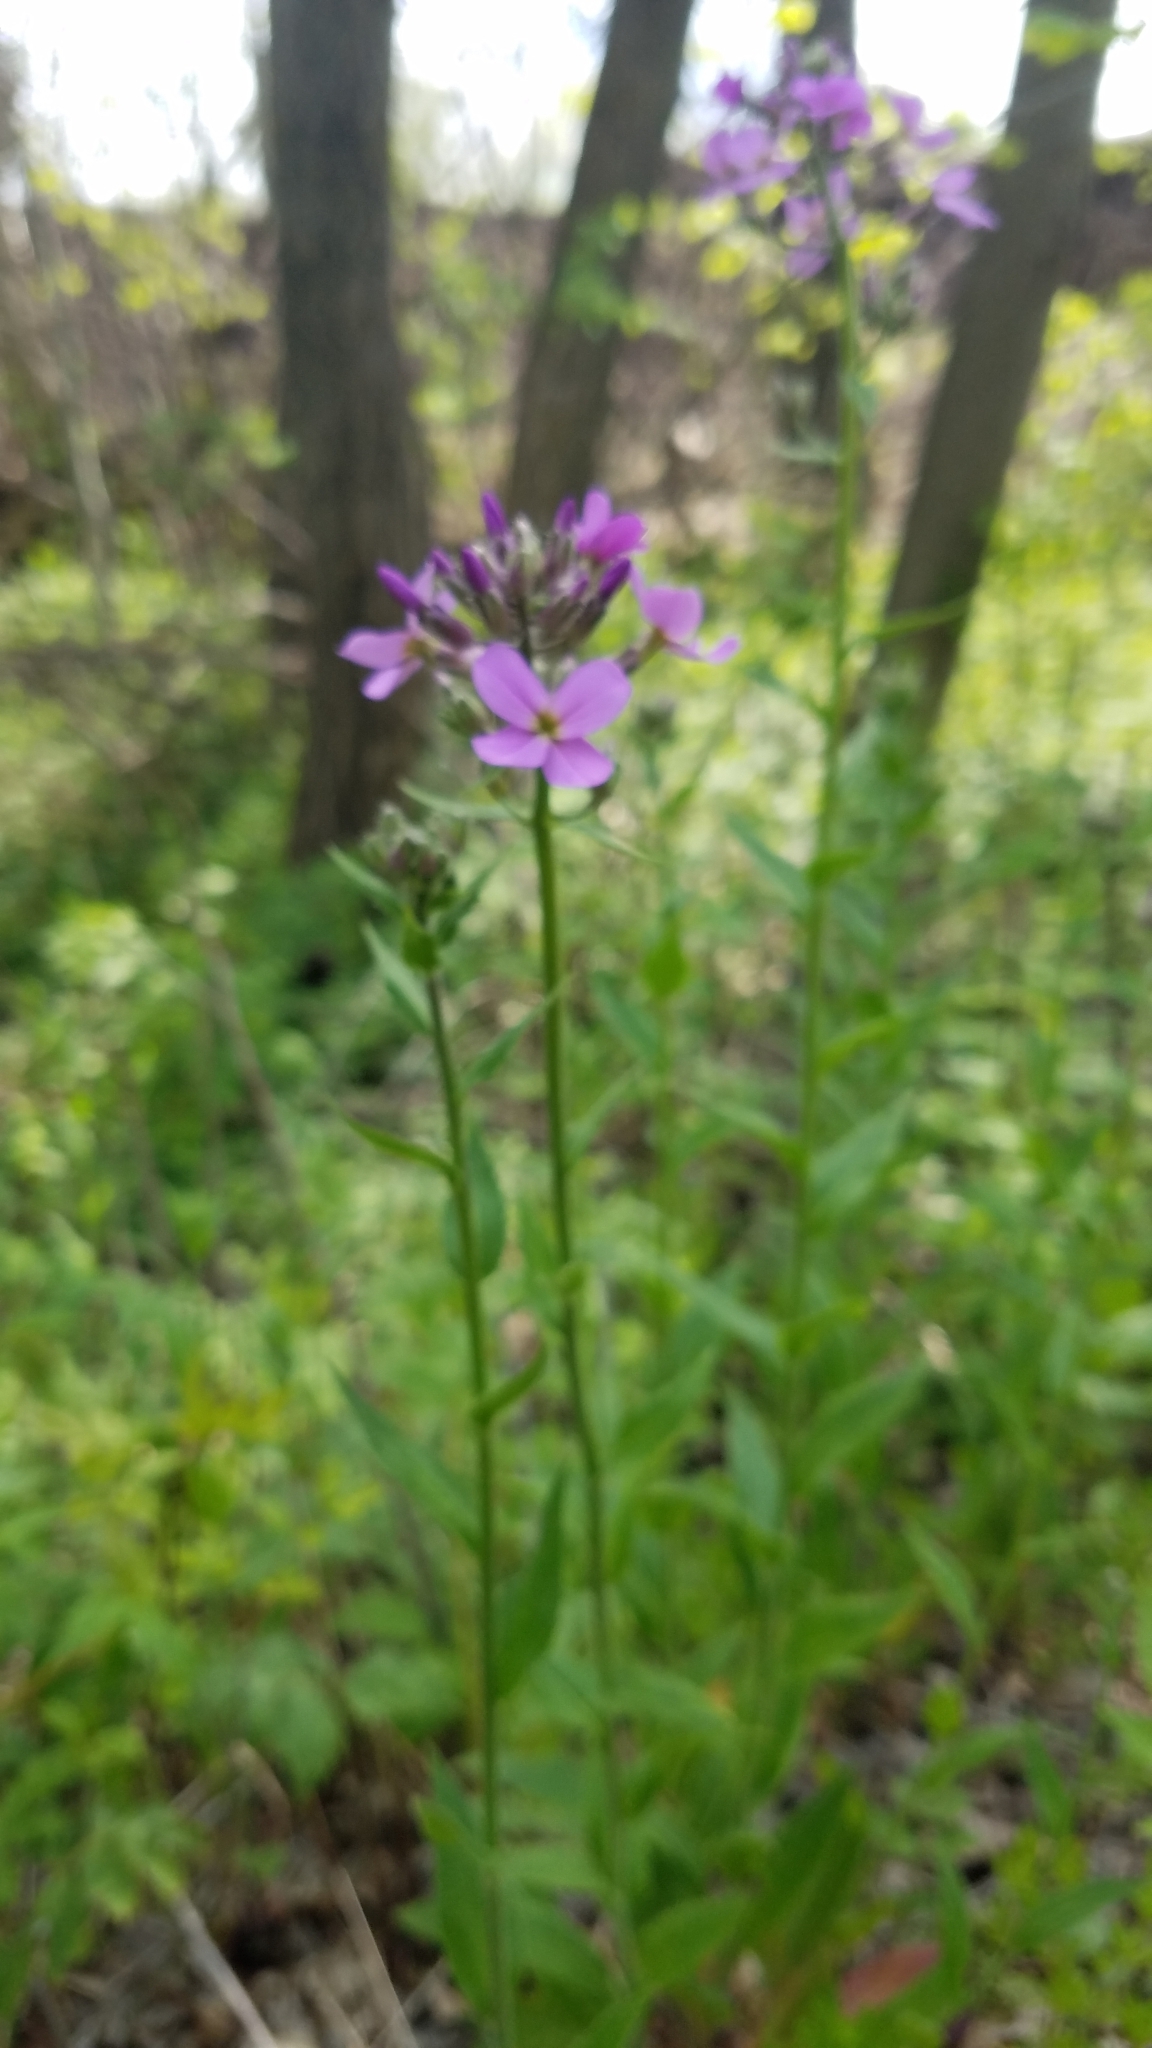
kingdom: Plantae
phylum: Tracheophyta
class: Magnoliopsida
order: Brassicales
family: Brassicaceae
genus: Hesperis
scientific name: Hesperis matronalis
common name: Dame's-violet
